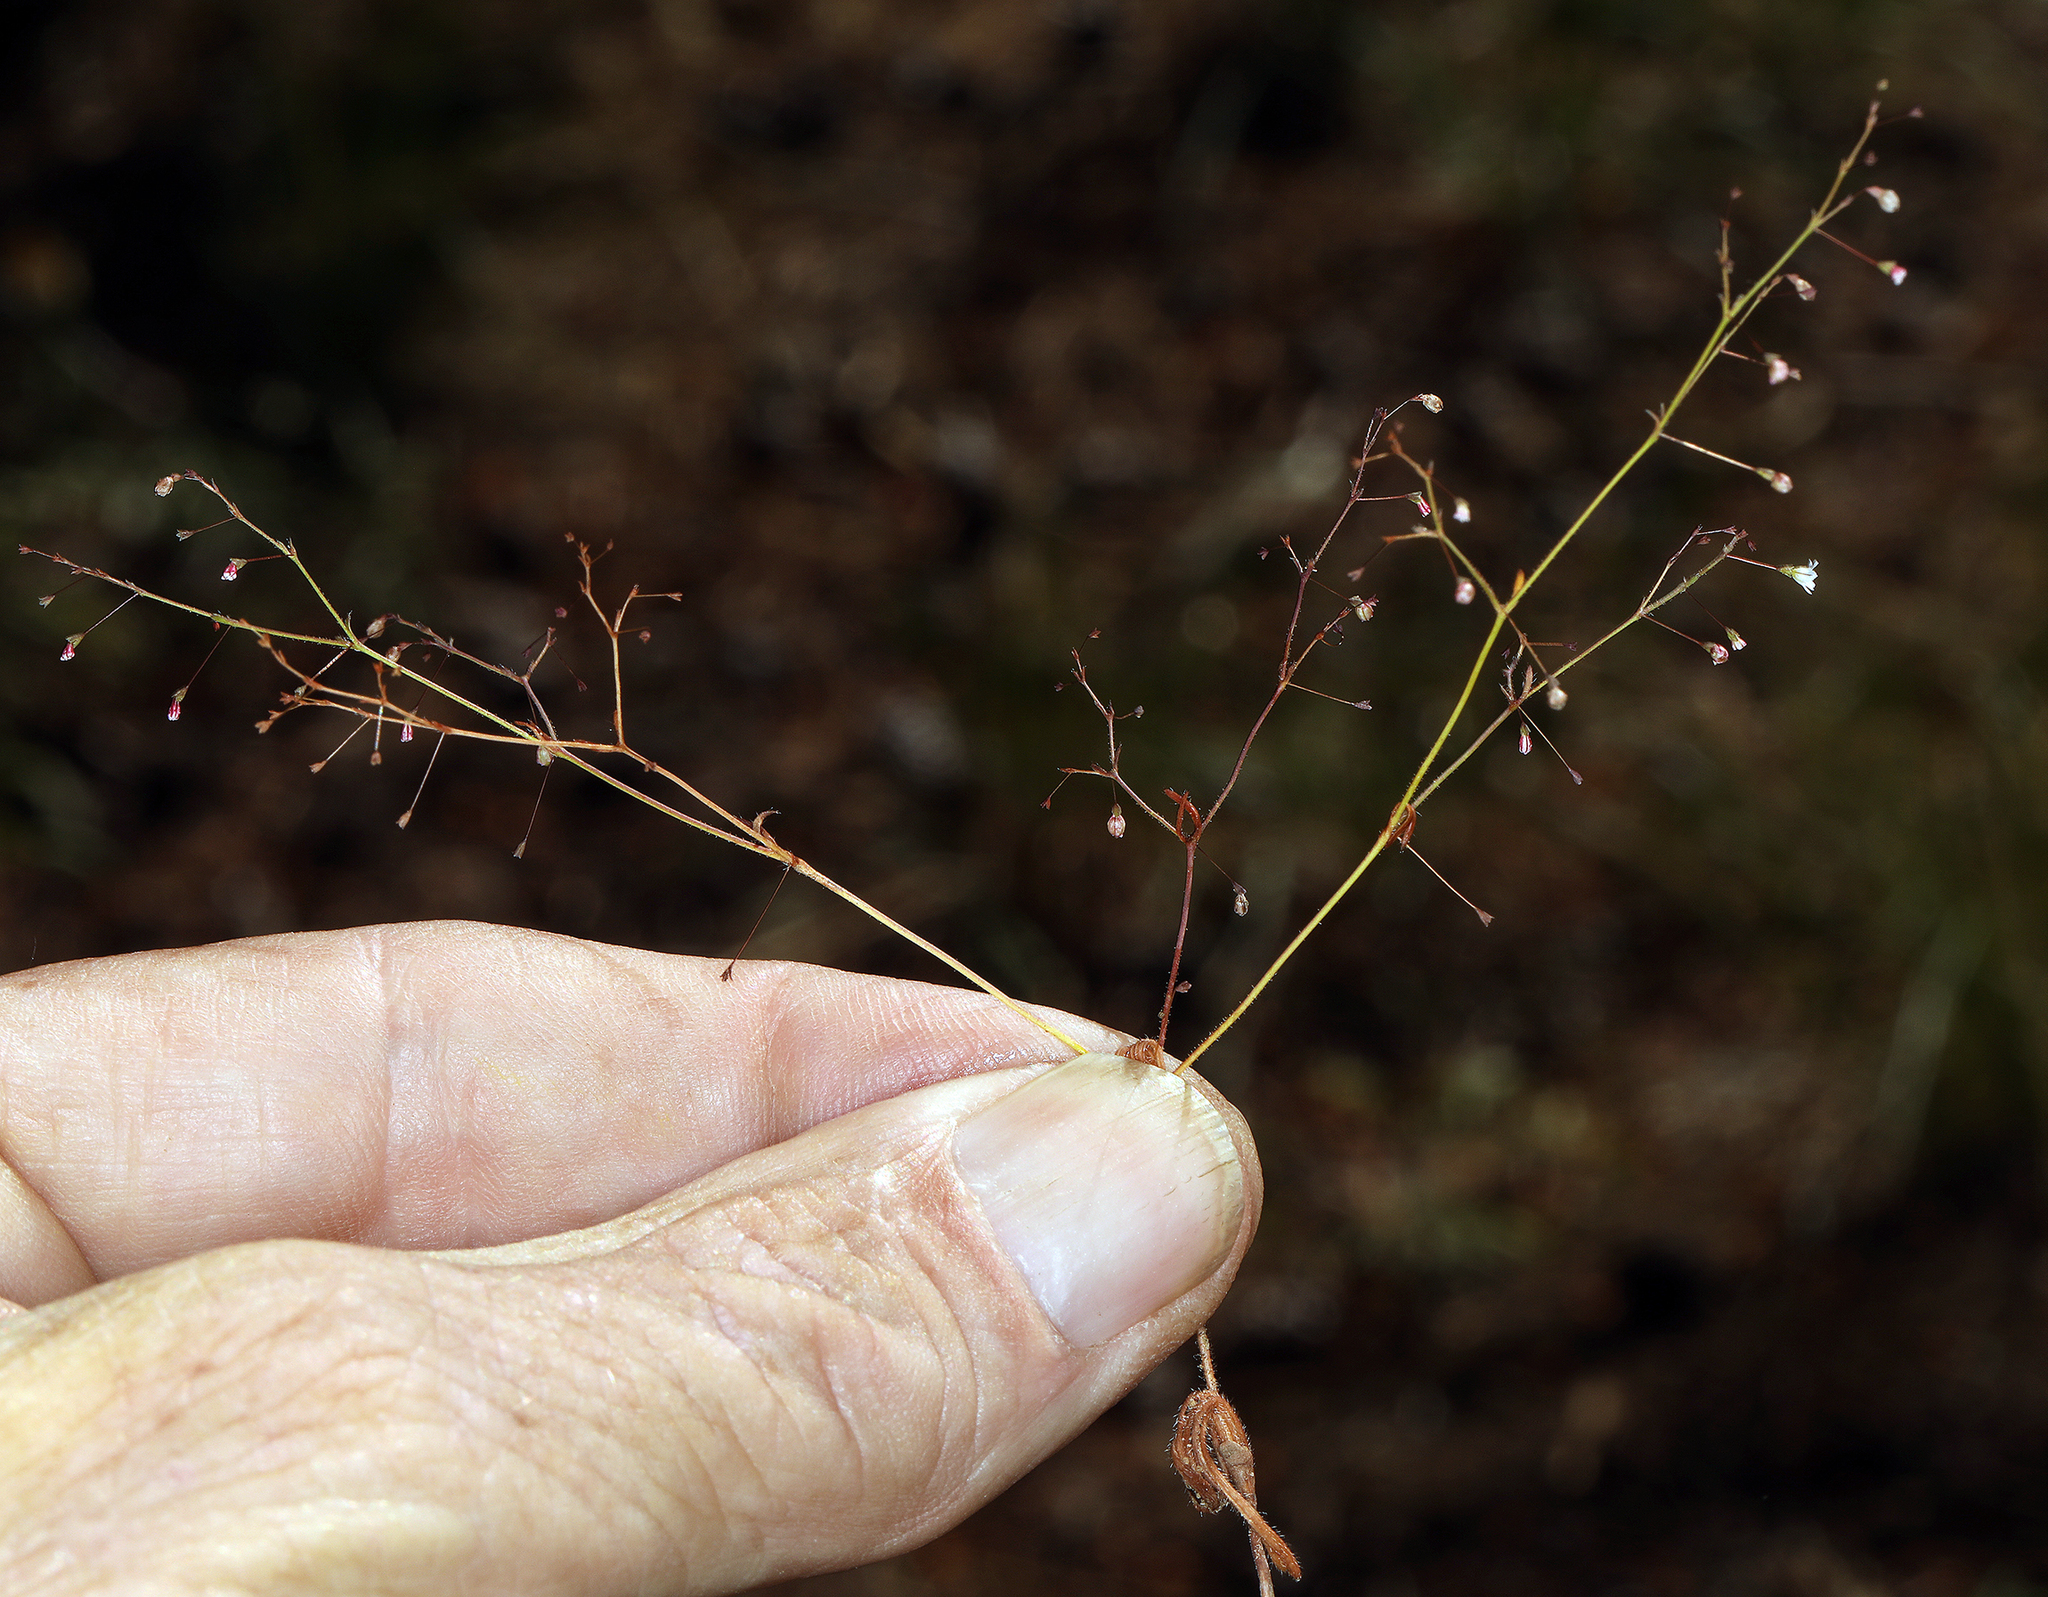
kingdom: Plantae
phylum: Tracheophyta
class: Magnoliopsida
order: Caryophyllales
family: Polygonaceae
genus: Eriogonum
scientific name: Eriogonum spergulinum
